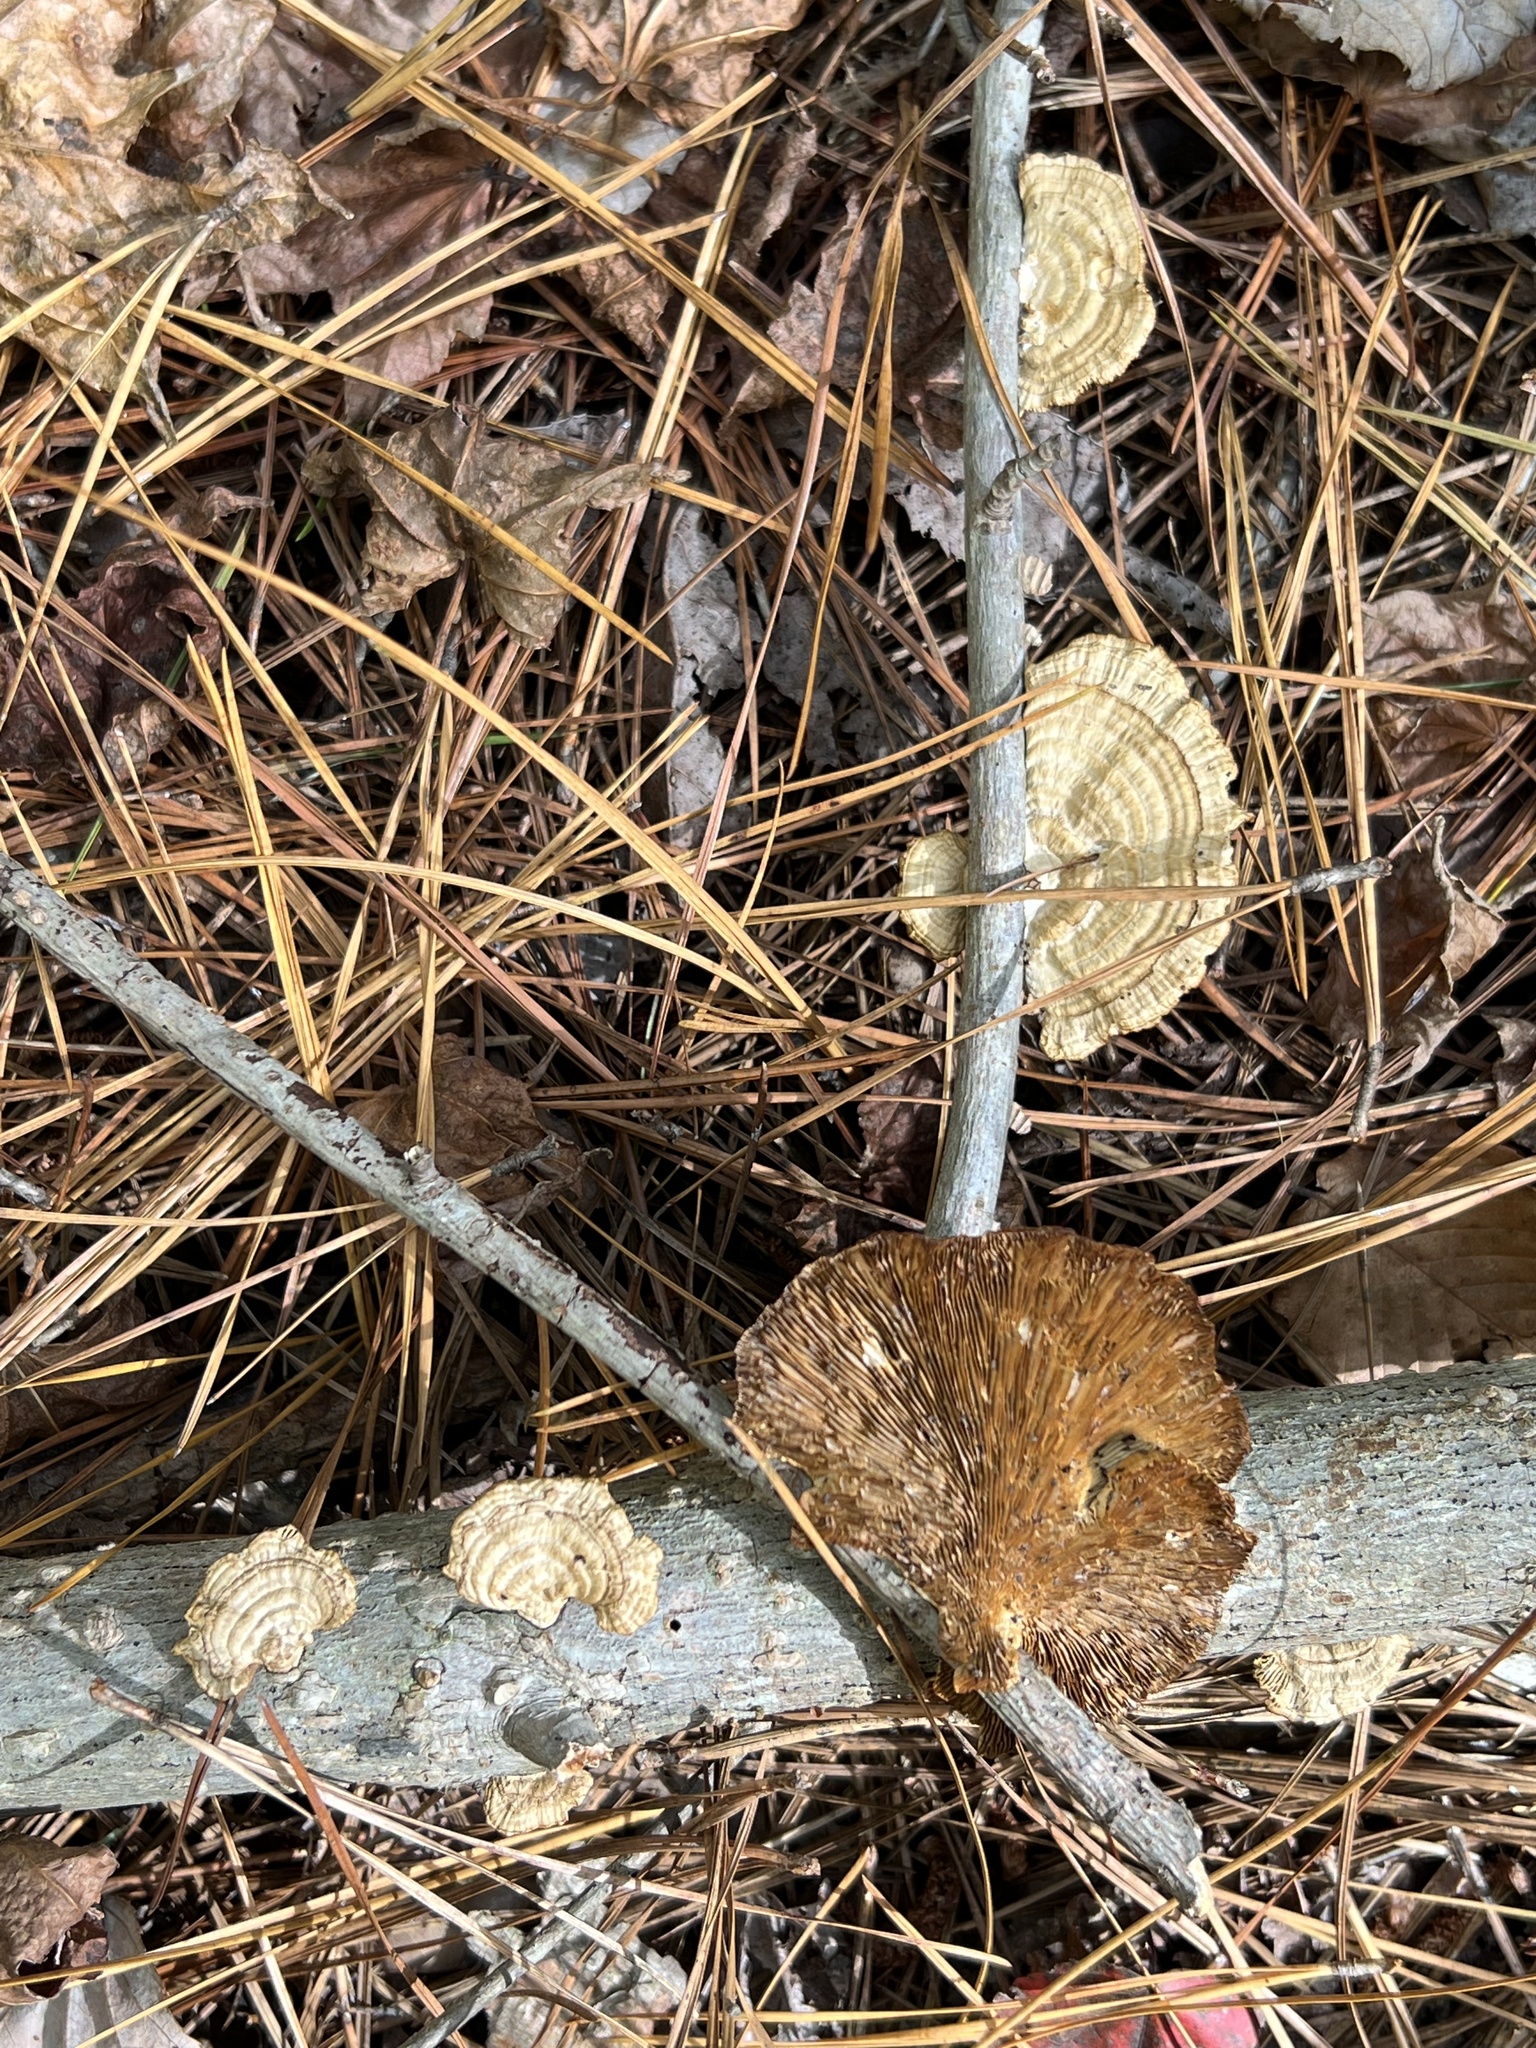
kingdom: Fungi
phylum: Basidiomycota
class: Agaricomycetes
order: Polyporales
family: Polyporaceae
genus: Daedaleopsis
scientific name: Daedaleopsis confragosa
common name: Blushing bracket
